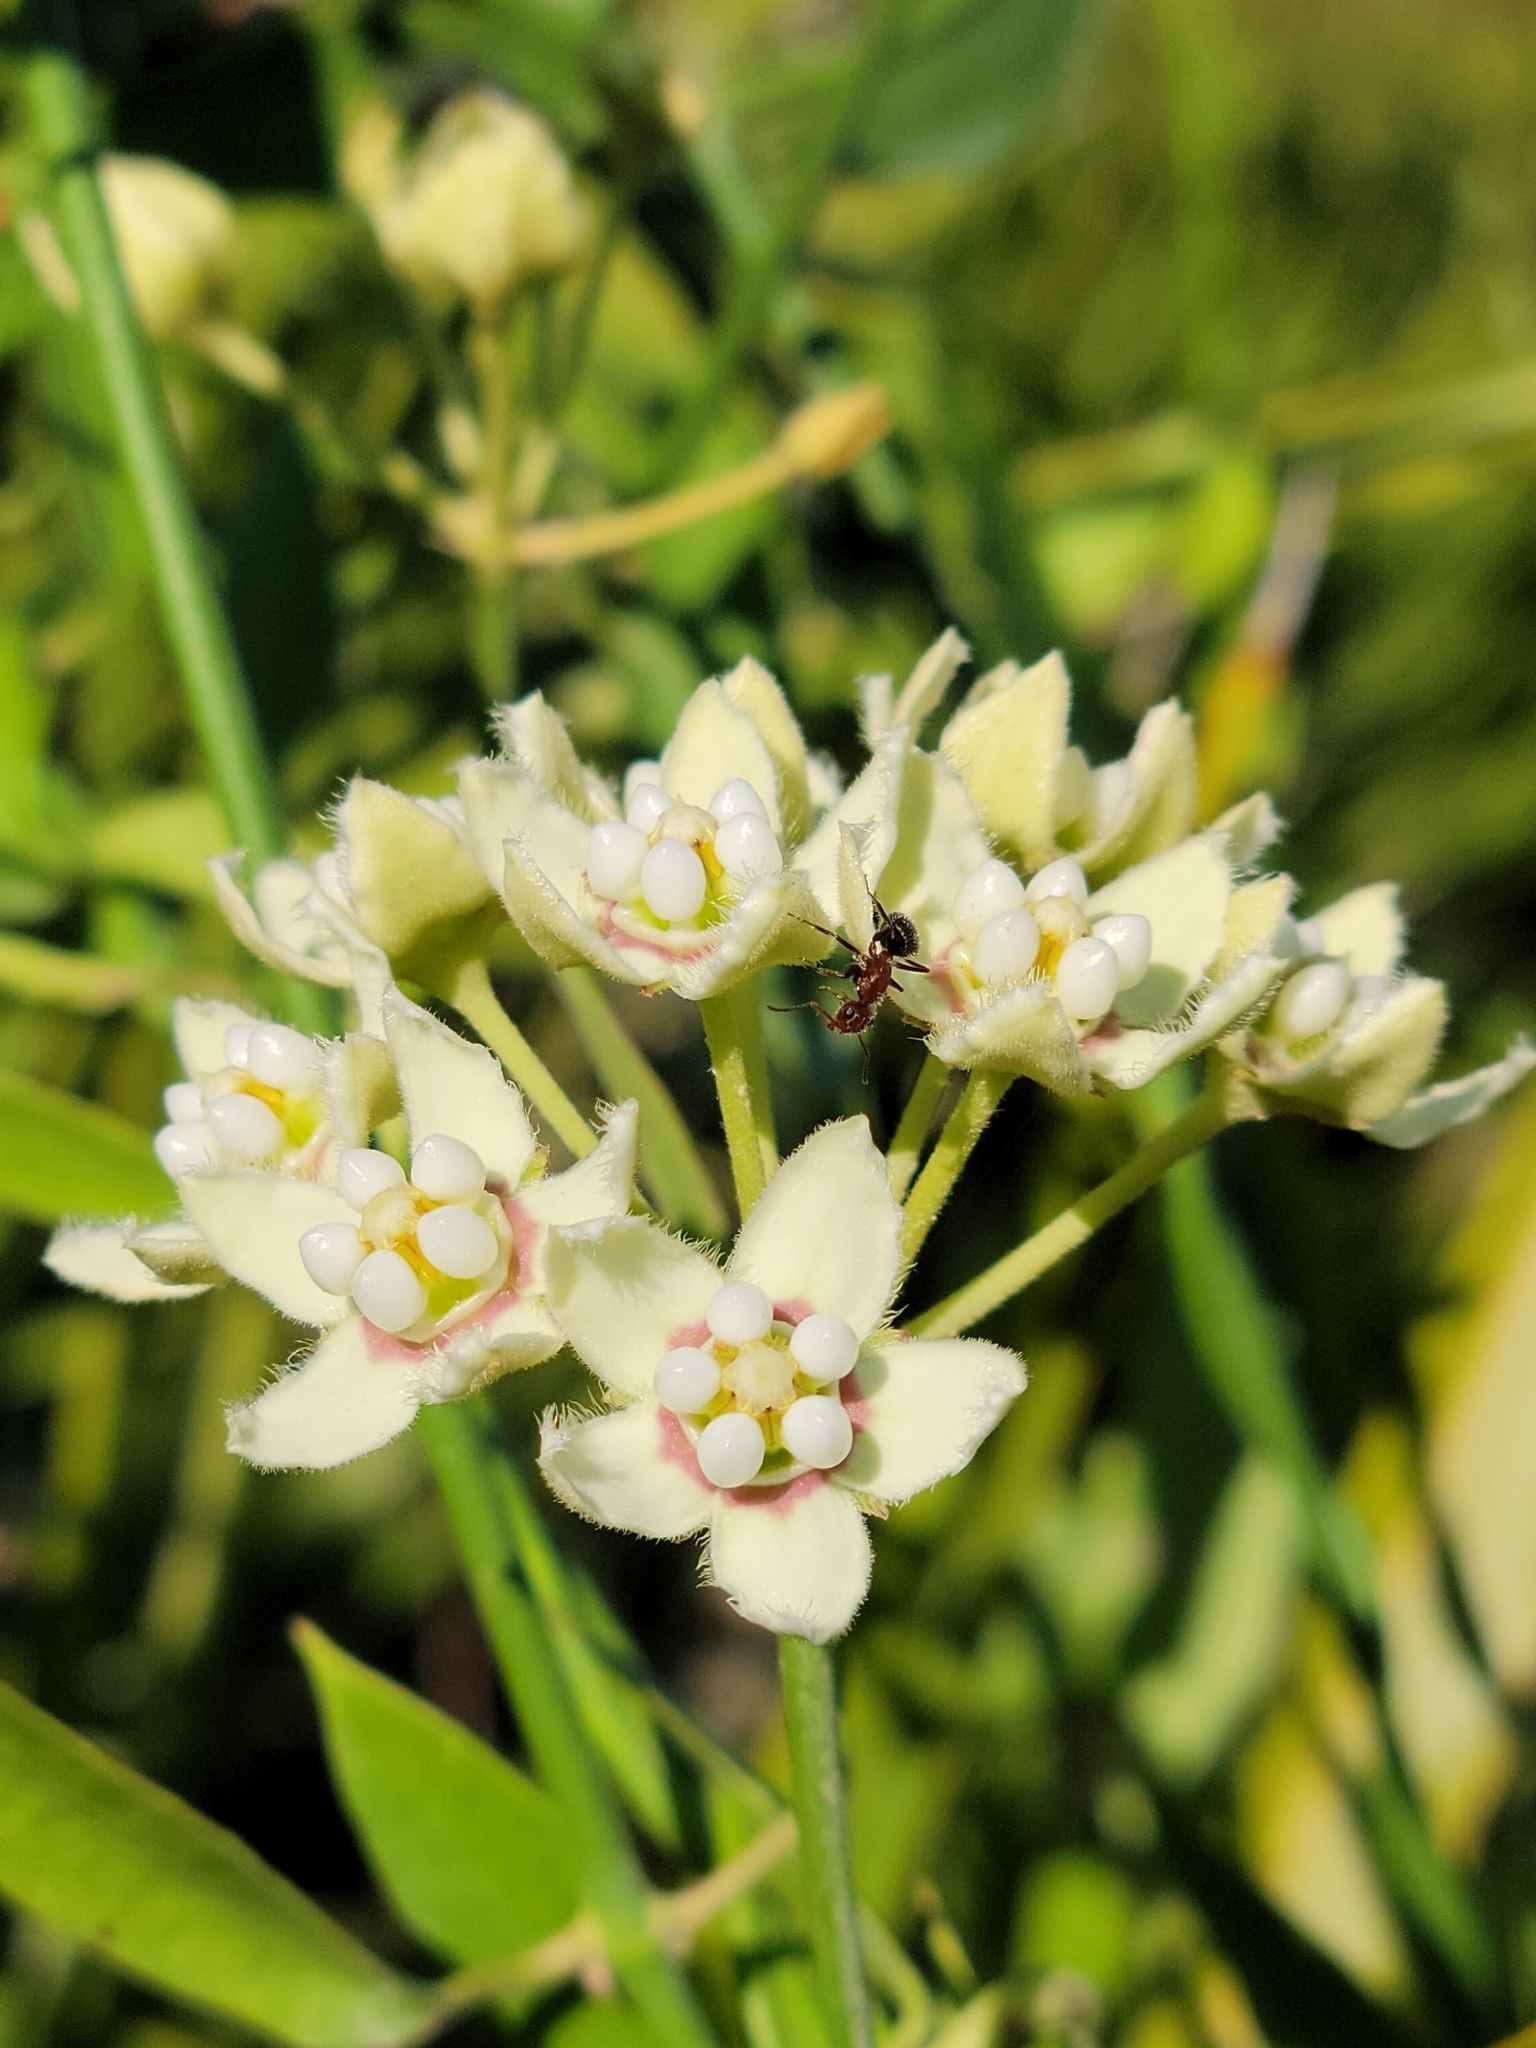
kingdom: Plantae
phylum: Tracheophyta
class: Magnoliopsida
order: Gentianales
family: Apocynaceae
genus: Funastrum
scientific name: Funastrum clausum
